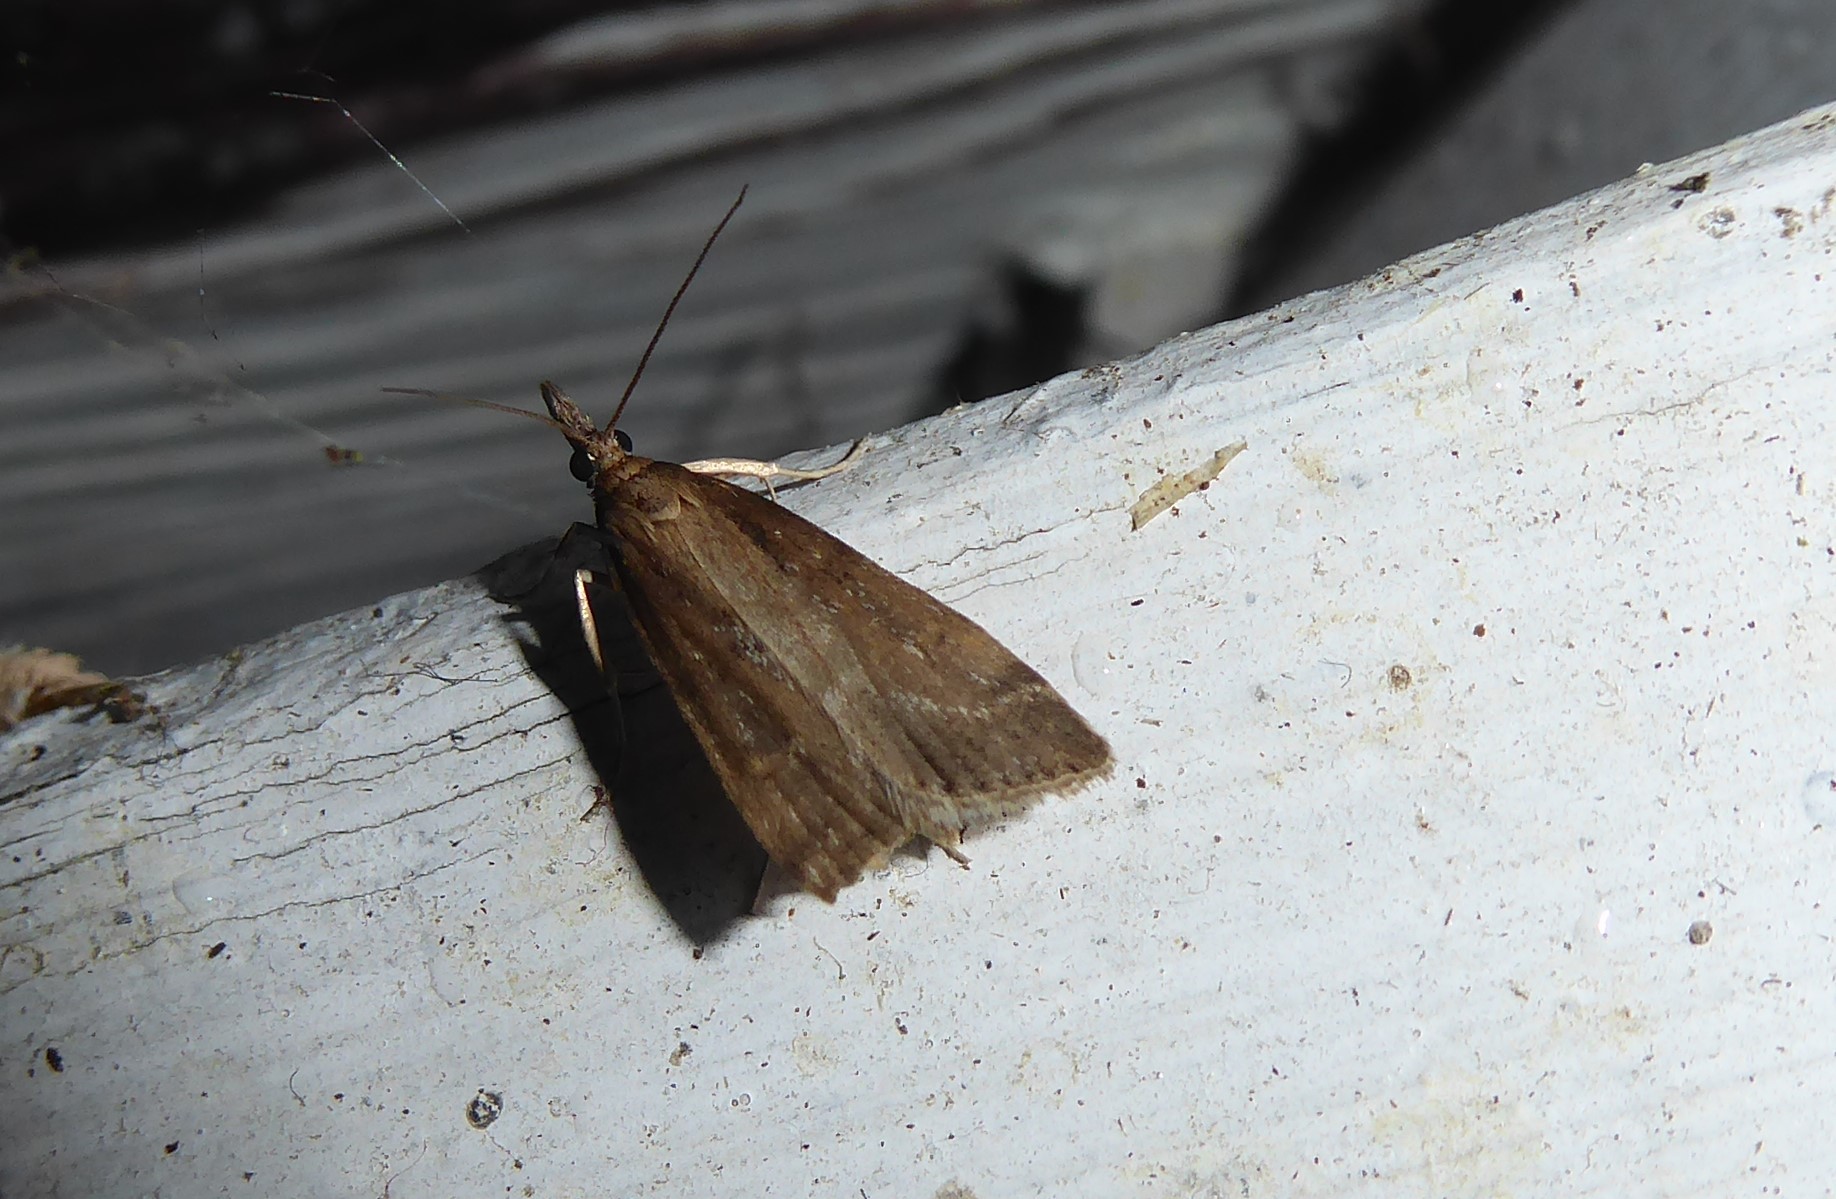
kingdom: Animalia
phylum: Arthropoda
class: Insecta
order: Lepidoptera
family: Crambidae
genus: Eudonia
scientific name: Eudonia octophora
